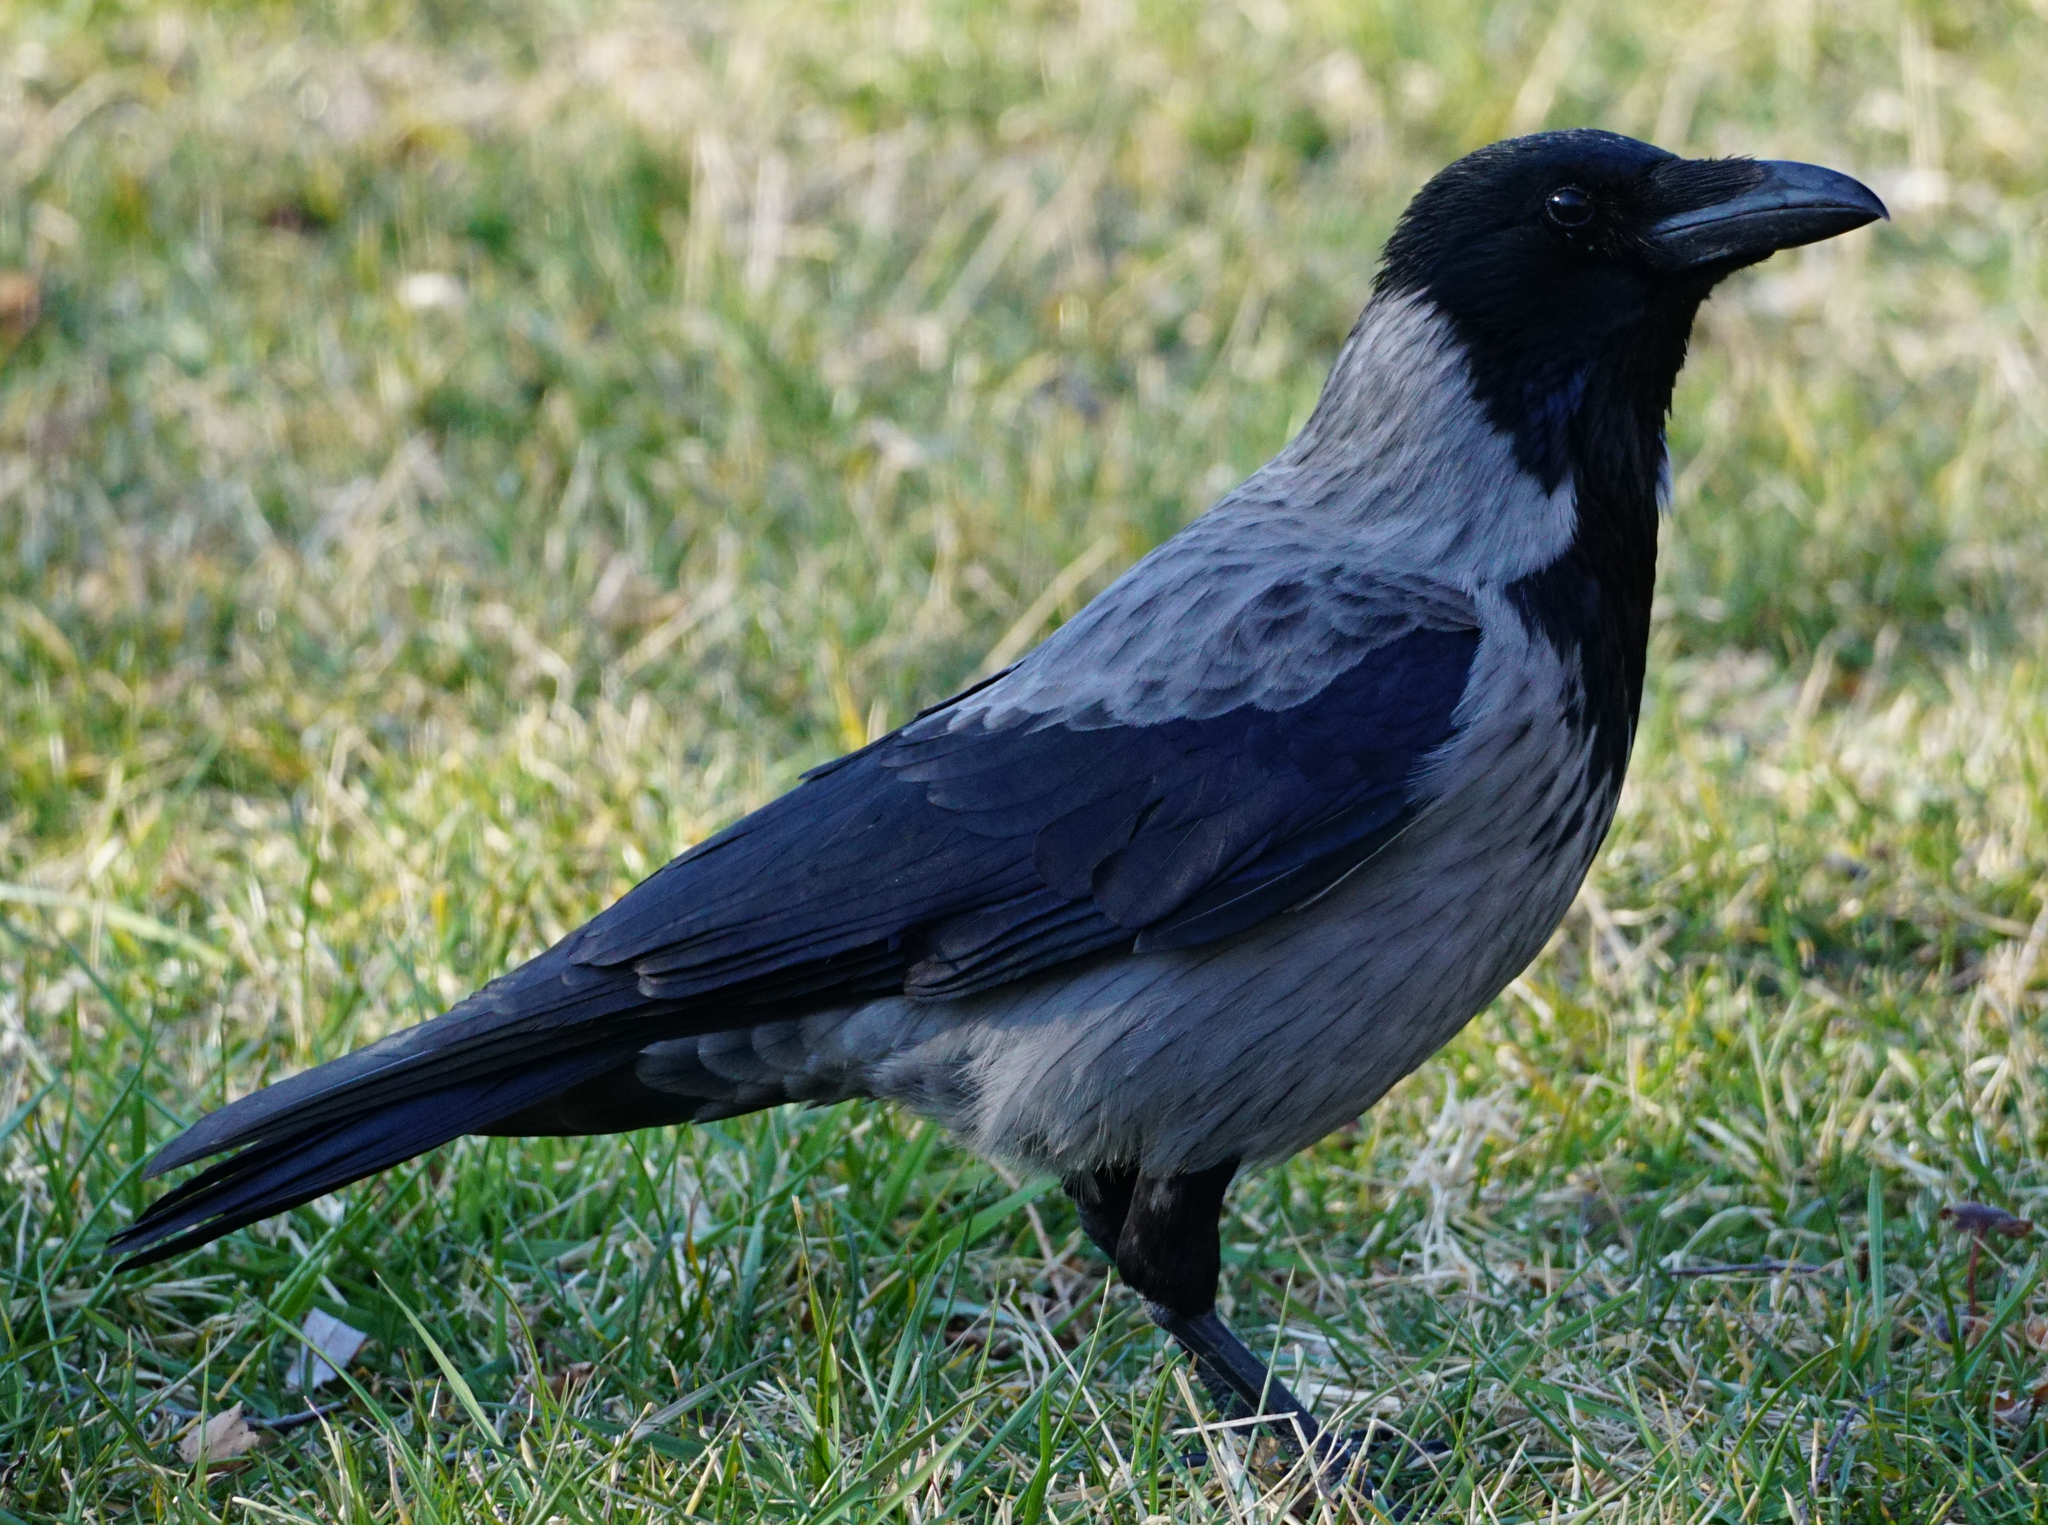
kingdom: Animalia
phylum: Chordata
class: Aves
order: Passeriformes
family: Corvidae
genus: Corvus
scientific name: Corvus
